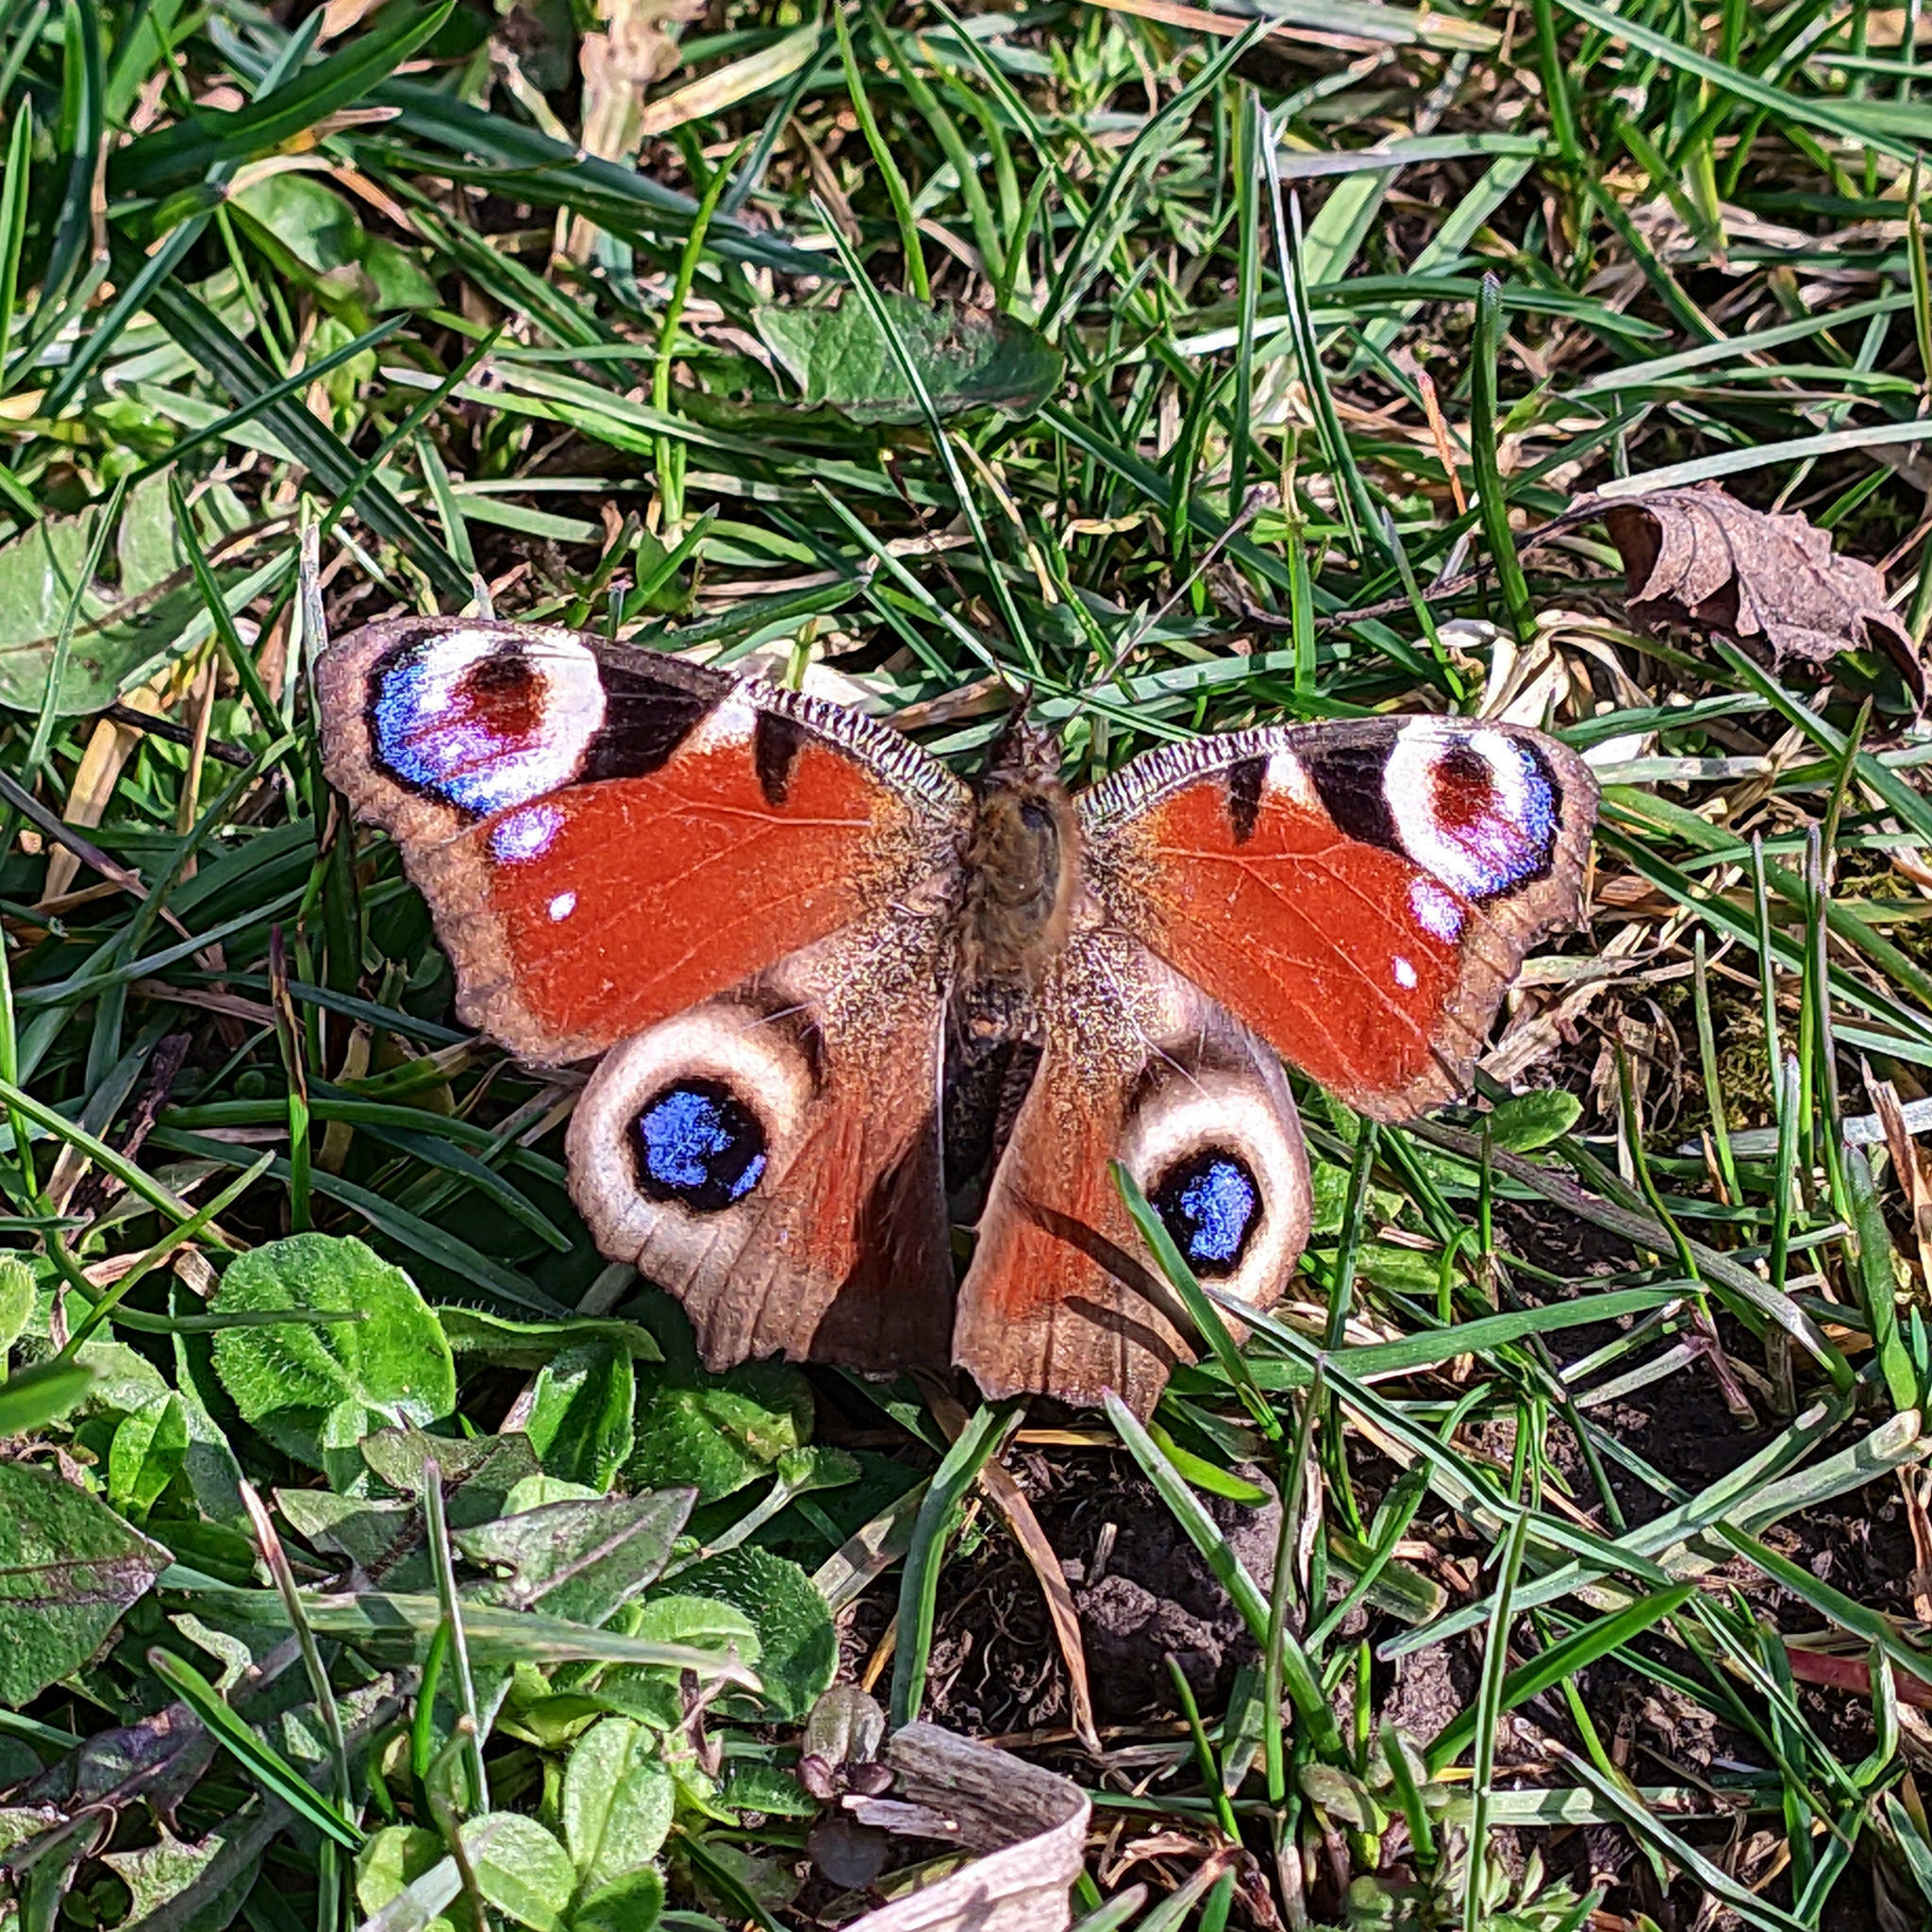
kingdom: Animalia
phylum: Arthropoda
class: Insecta
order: Lepidoptera
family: Nymphalidae
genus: Aglais
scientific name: Aglais io
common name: Peacock
